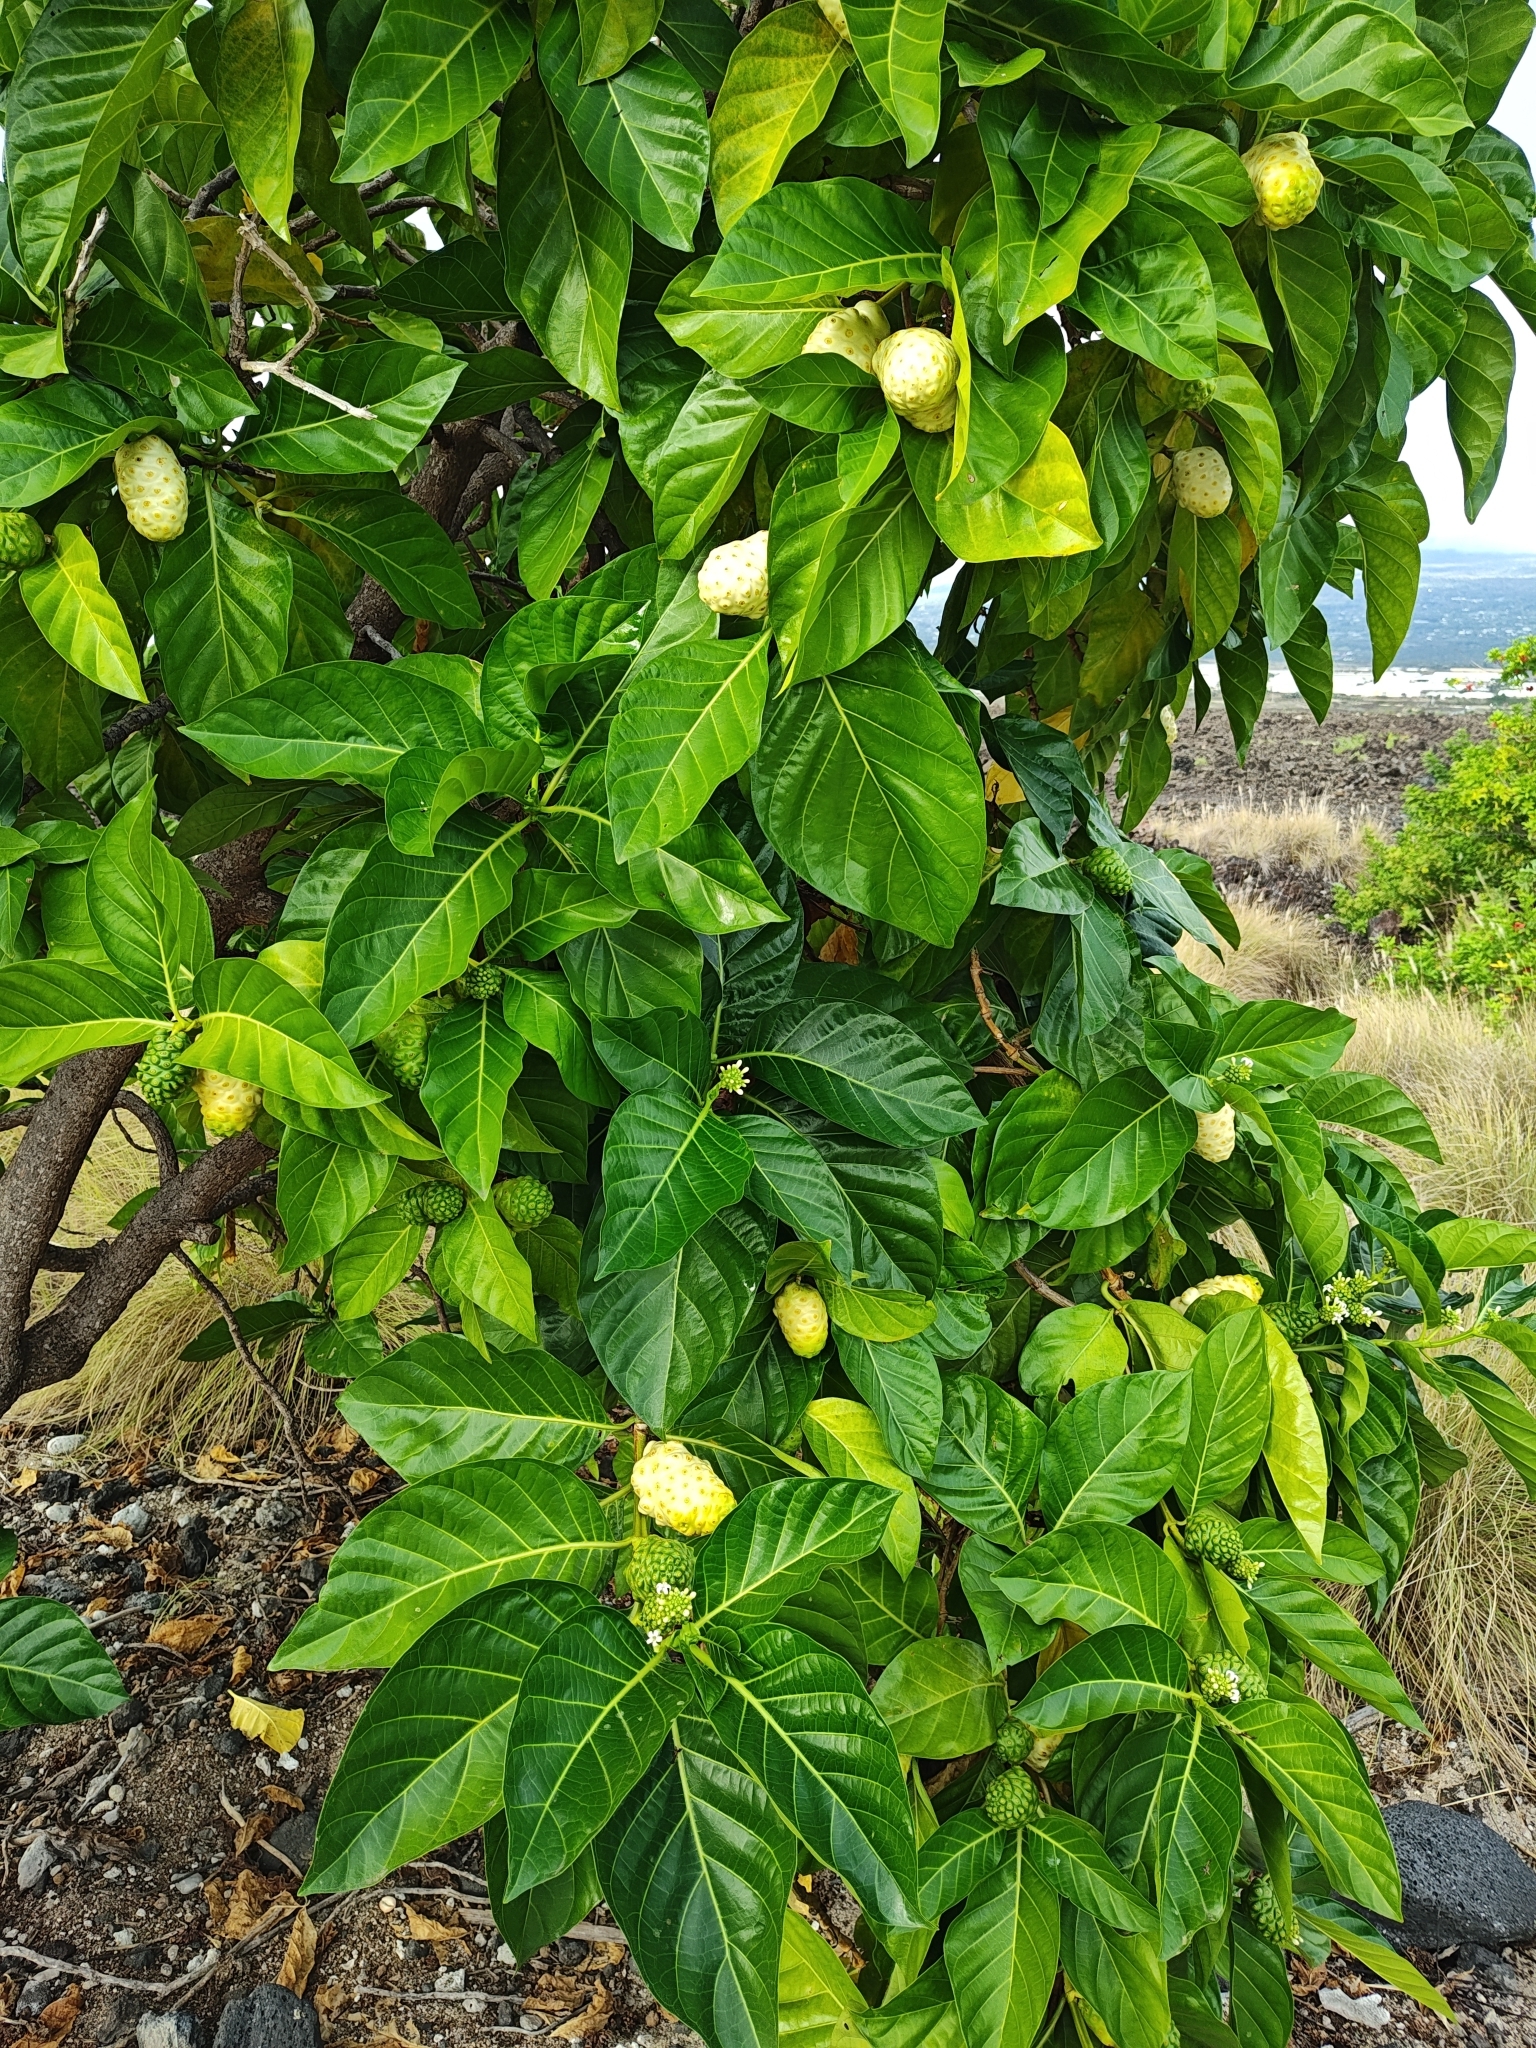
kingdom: Plantae
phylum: Tracheophyta
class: Magnoliopsida
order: Gentianales
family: Rubiaceae
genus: Morinda
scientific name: Morinda citrifolia
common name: Indian-mulberry
